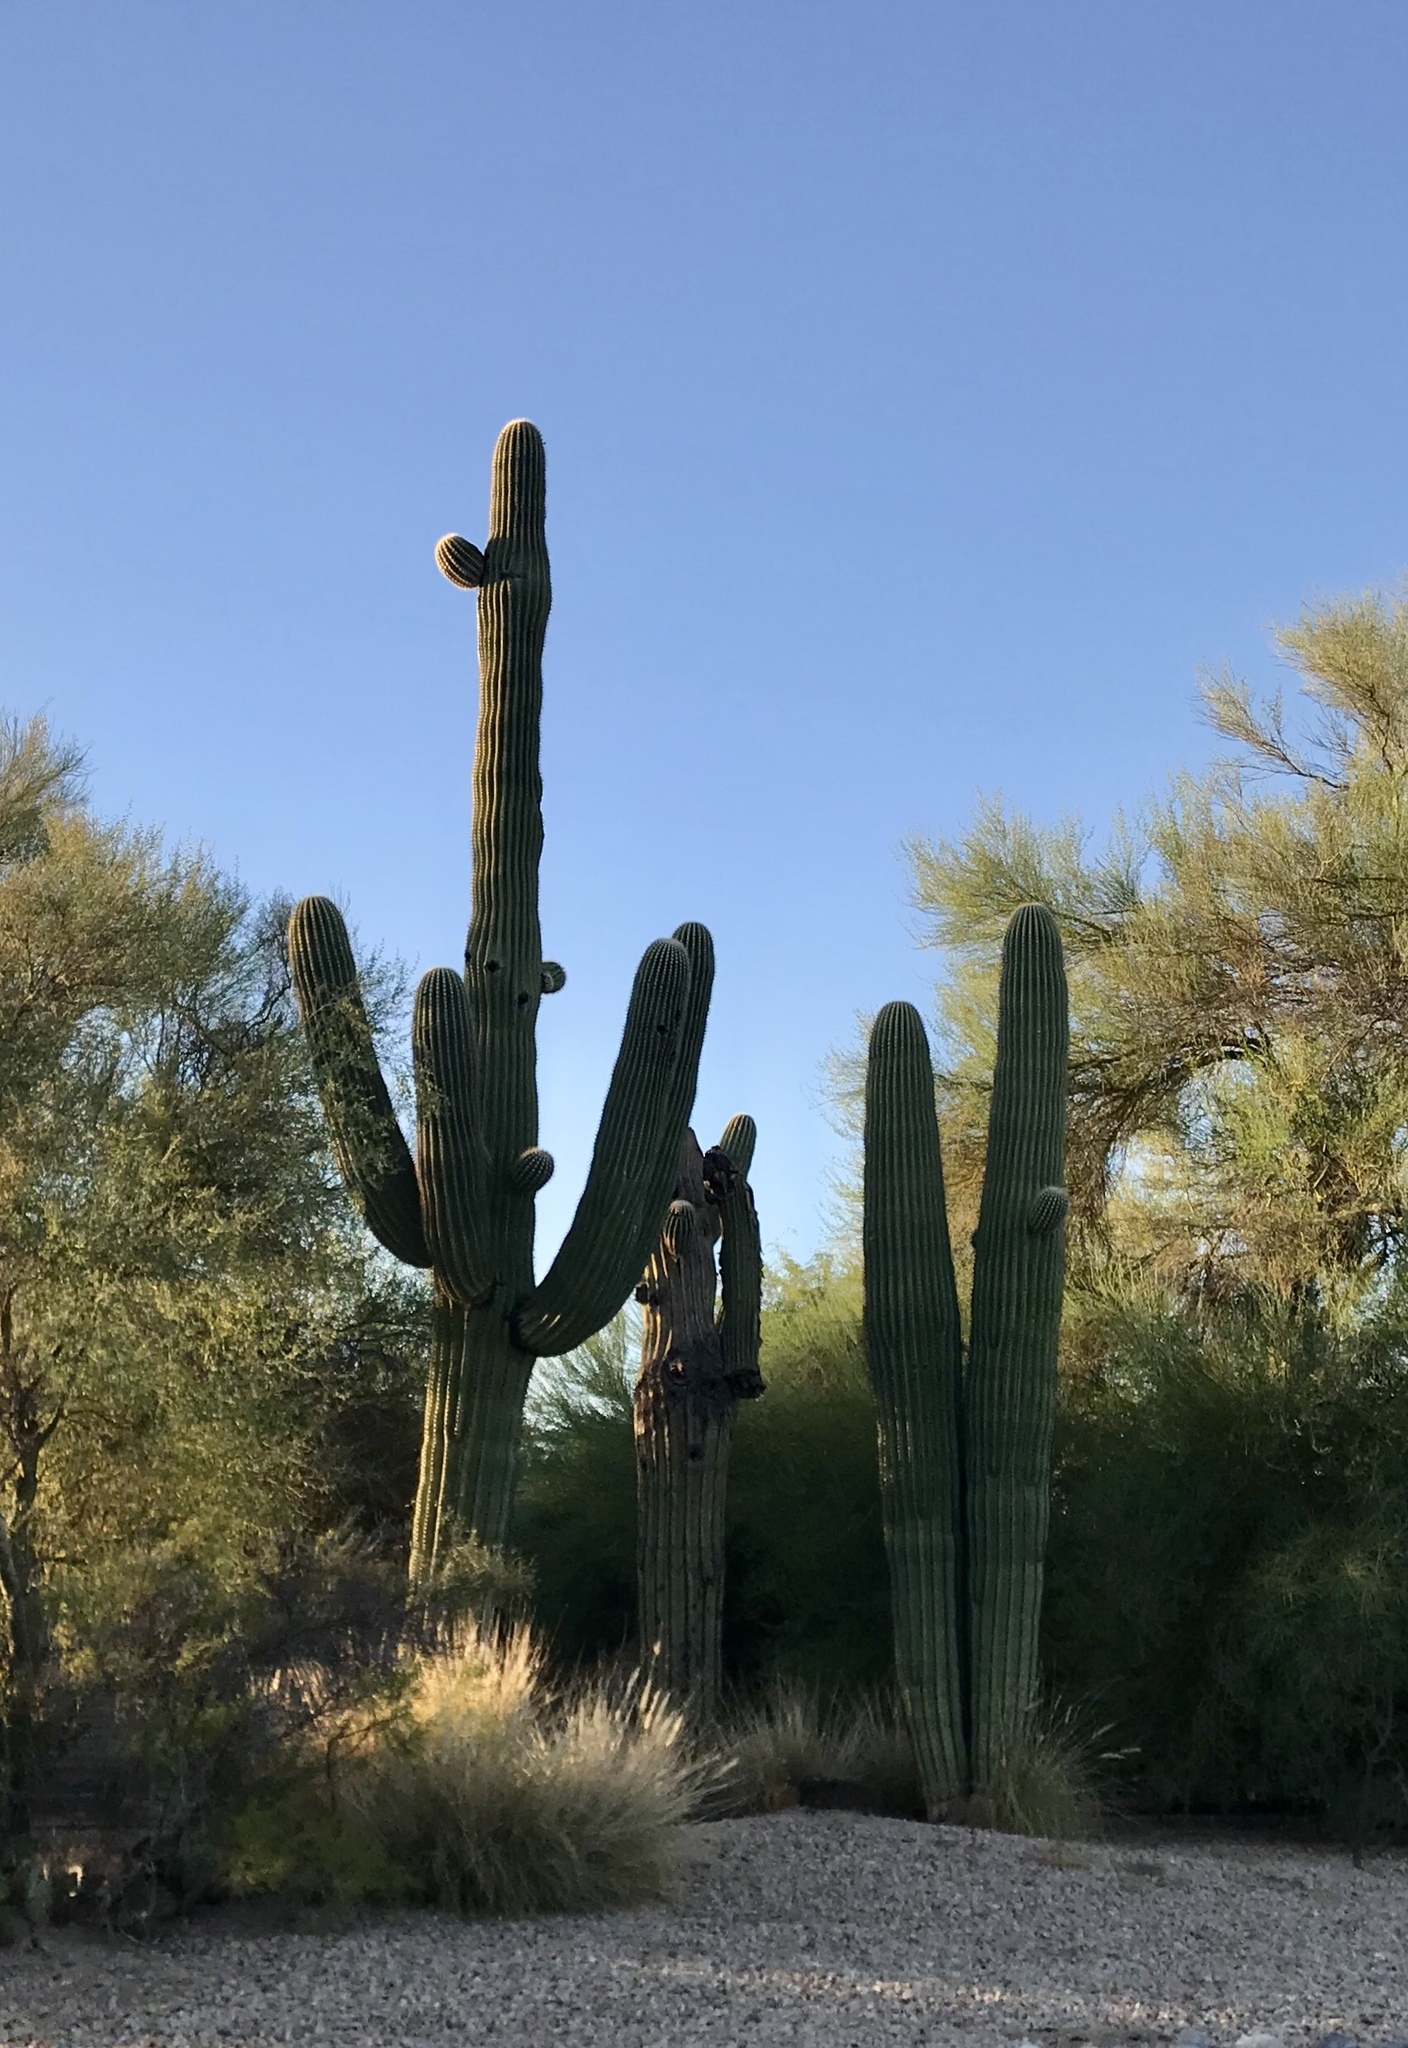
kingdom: Plantae
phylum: Tracheophyta
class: Magnoliopsida
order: Caryophyllales
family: Cactaceae
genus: Carnegiea
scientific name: Carnegiea gigantea
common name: Saguaro
